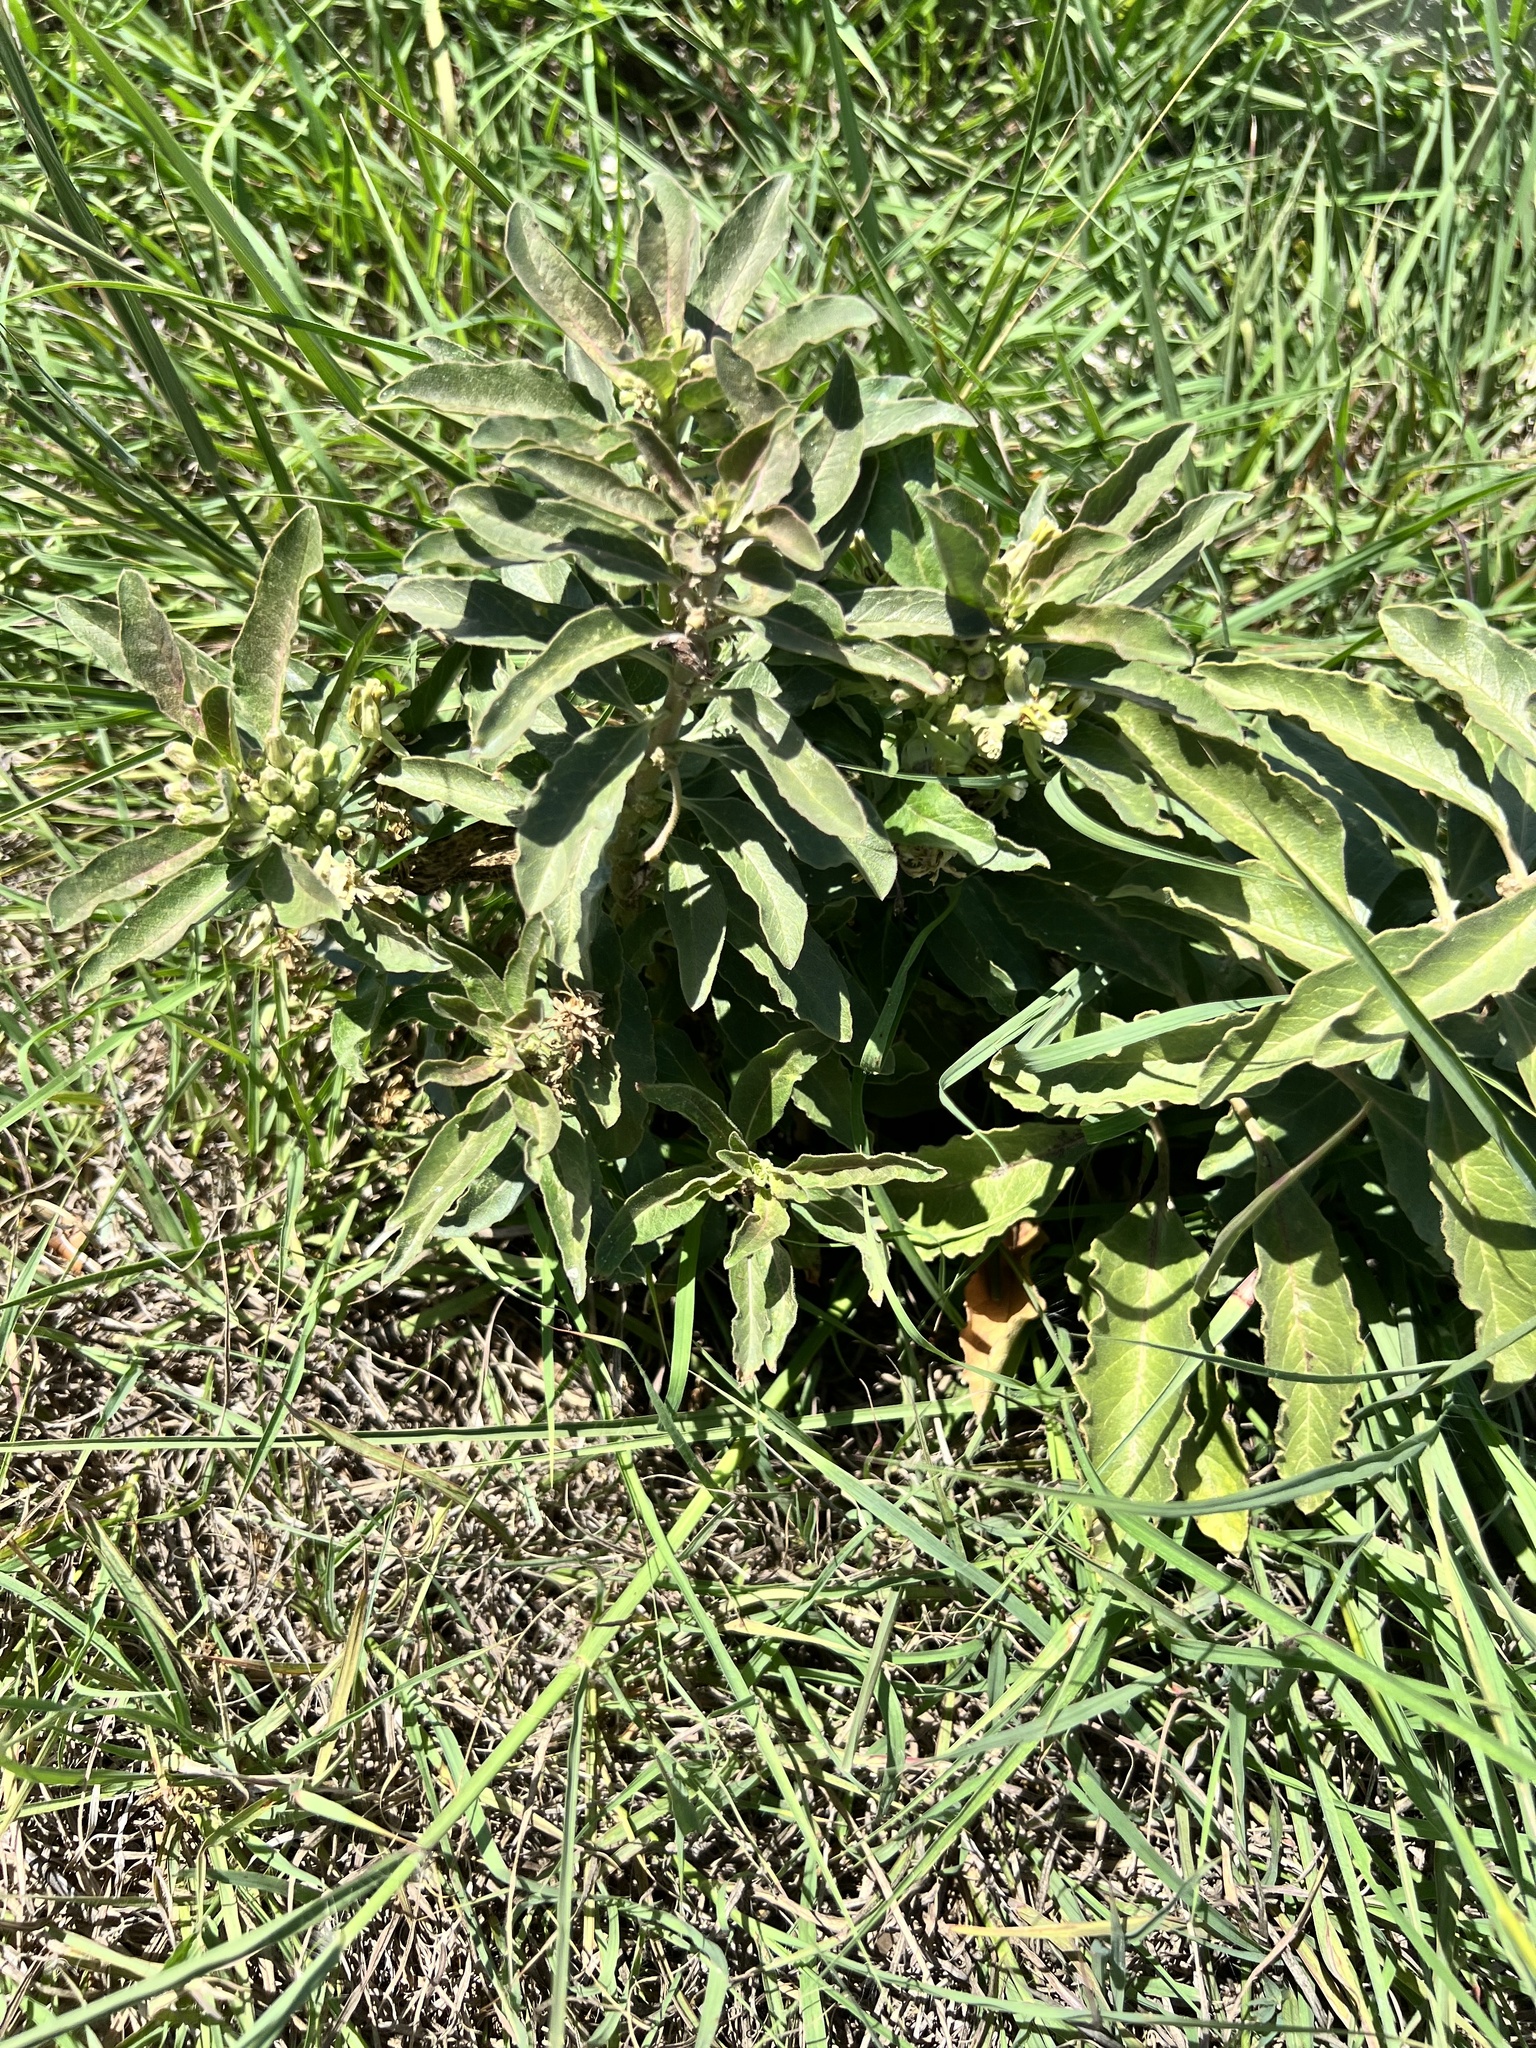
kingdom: Plantae
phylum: Tracheophyta
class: Magnoliopsida
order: Gentianales
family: Apocynaceae
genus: Asclepias
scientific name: Asclepias oenotheroides
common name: Zizotes milkweed
